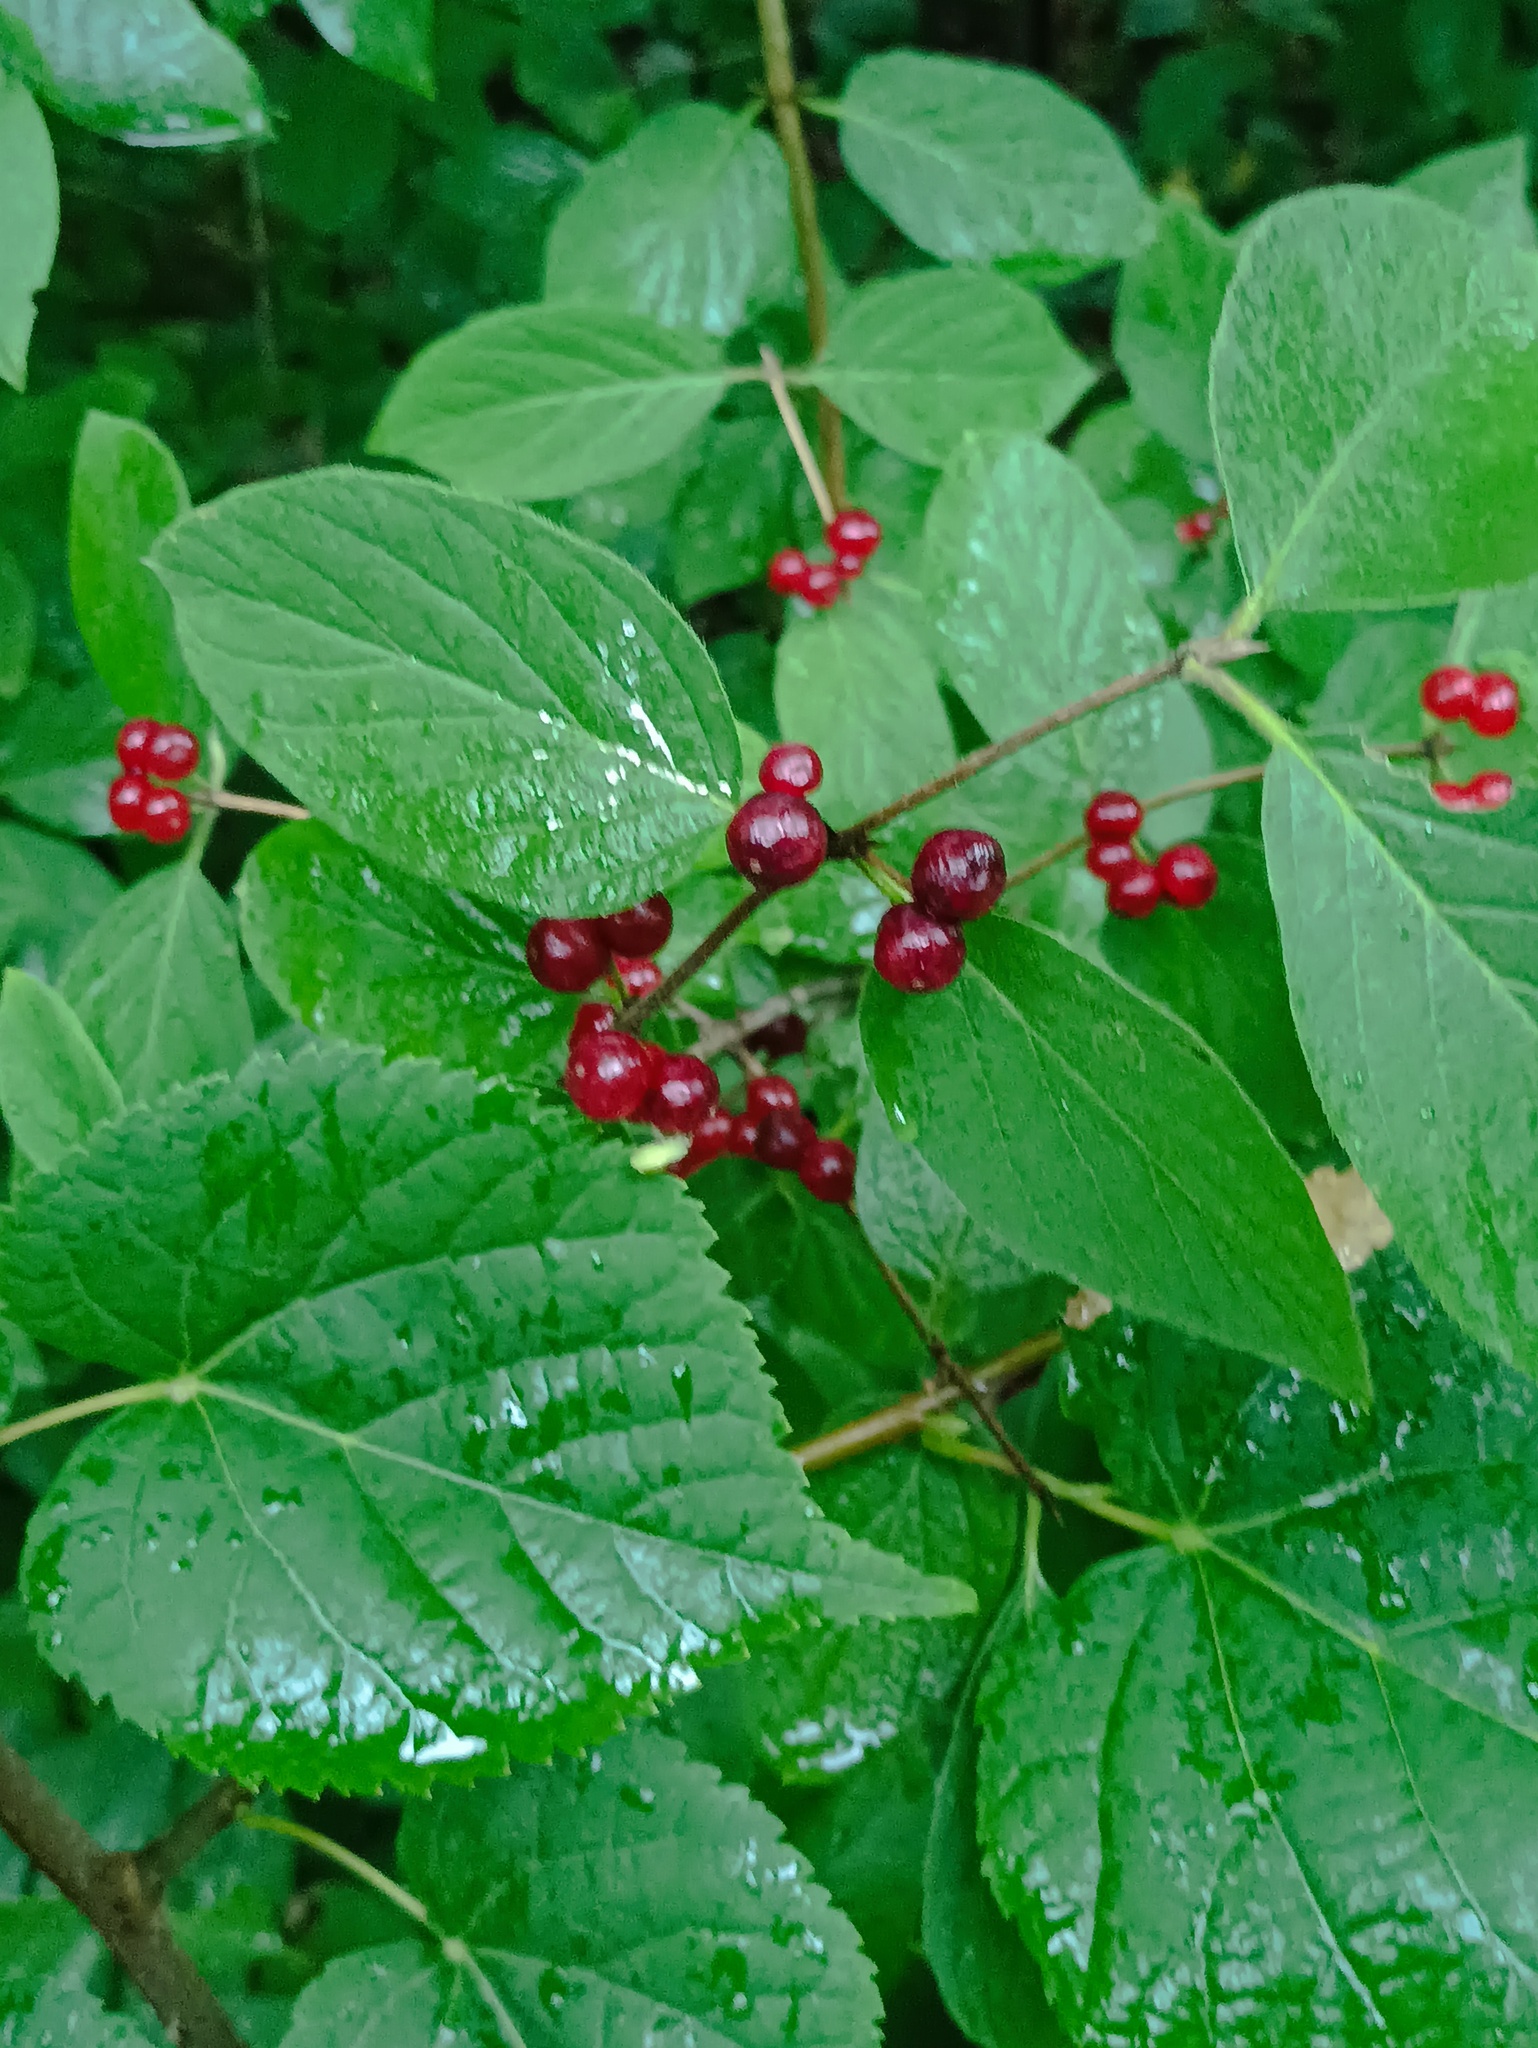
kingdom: Plantae
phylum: Tracheophyta
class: Magnoliopsida
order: Dipsacales
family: Caprifoliaceae
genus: Lonicera
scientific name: Lonicera xylosteum
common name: Fly honeysuckle
